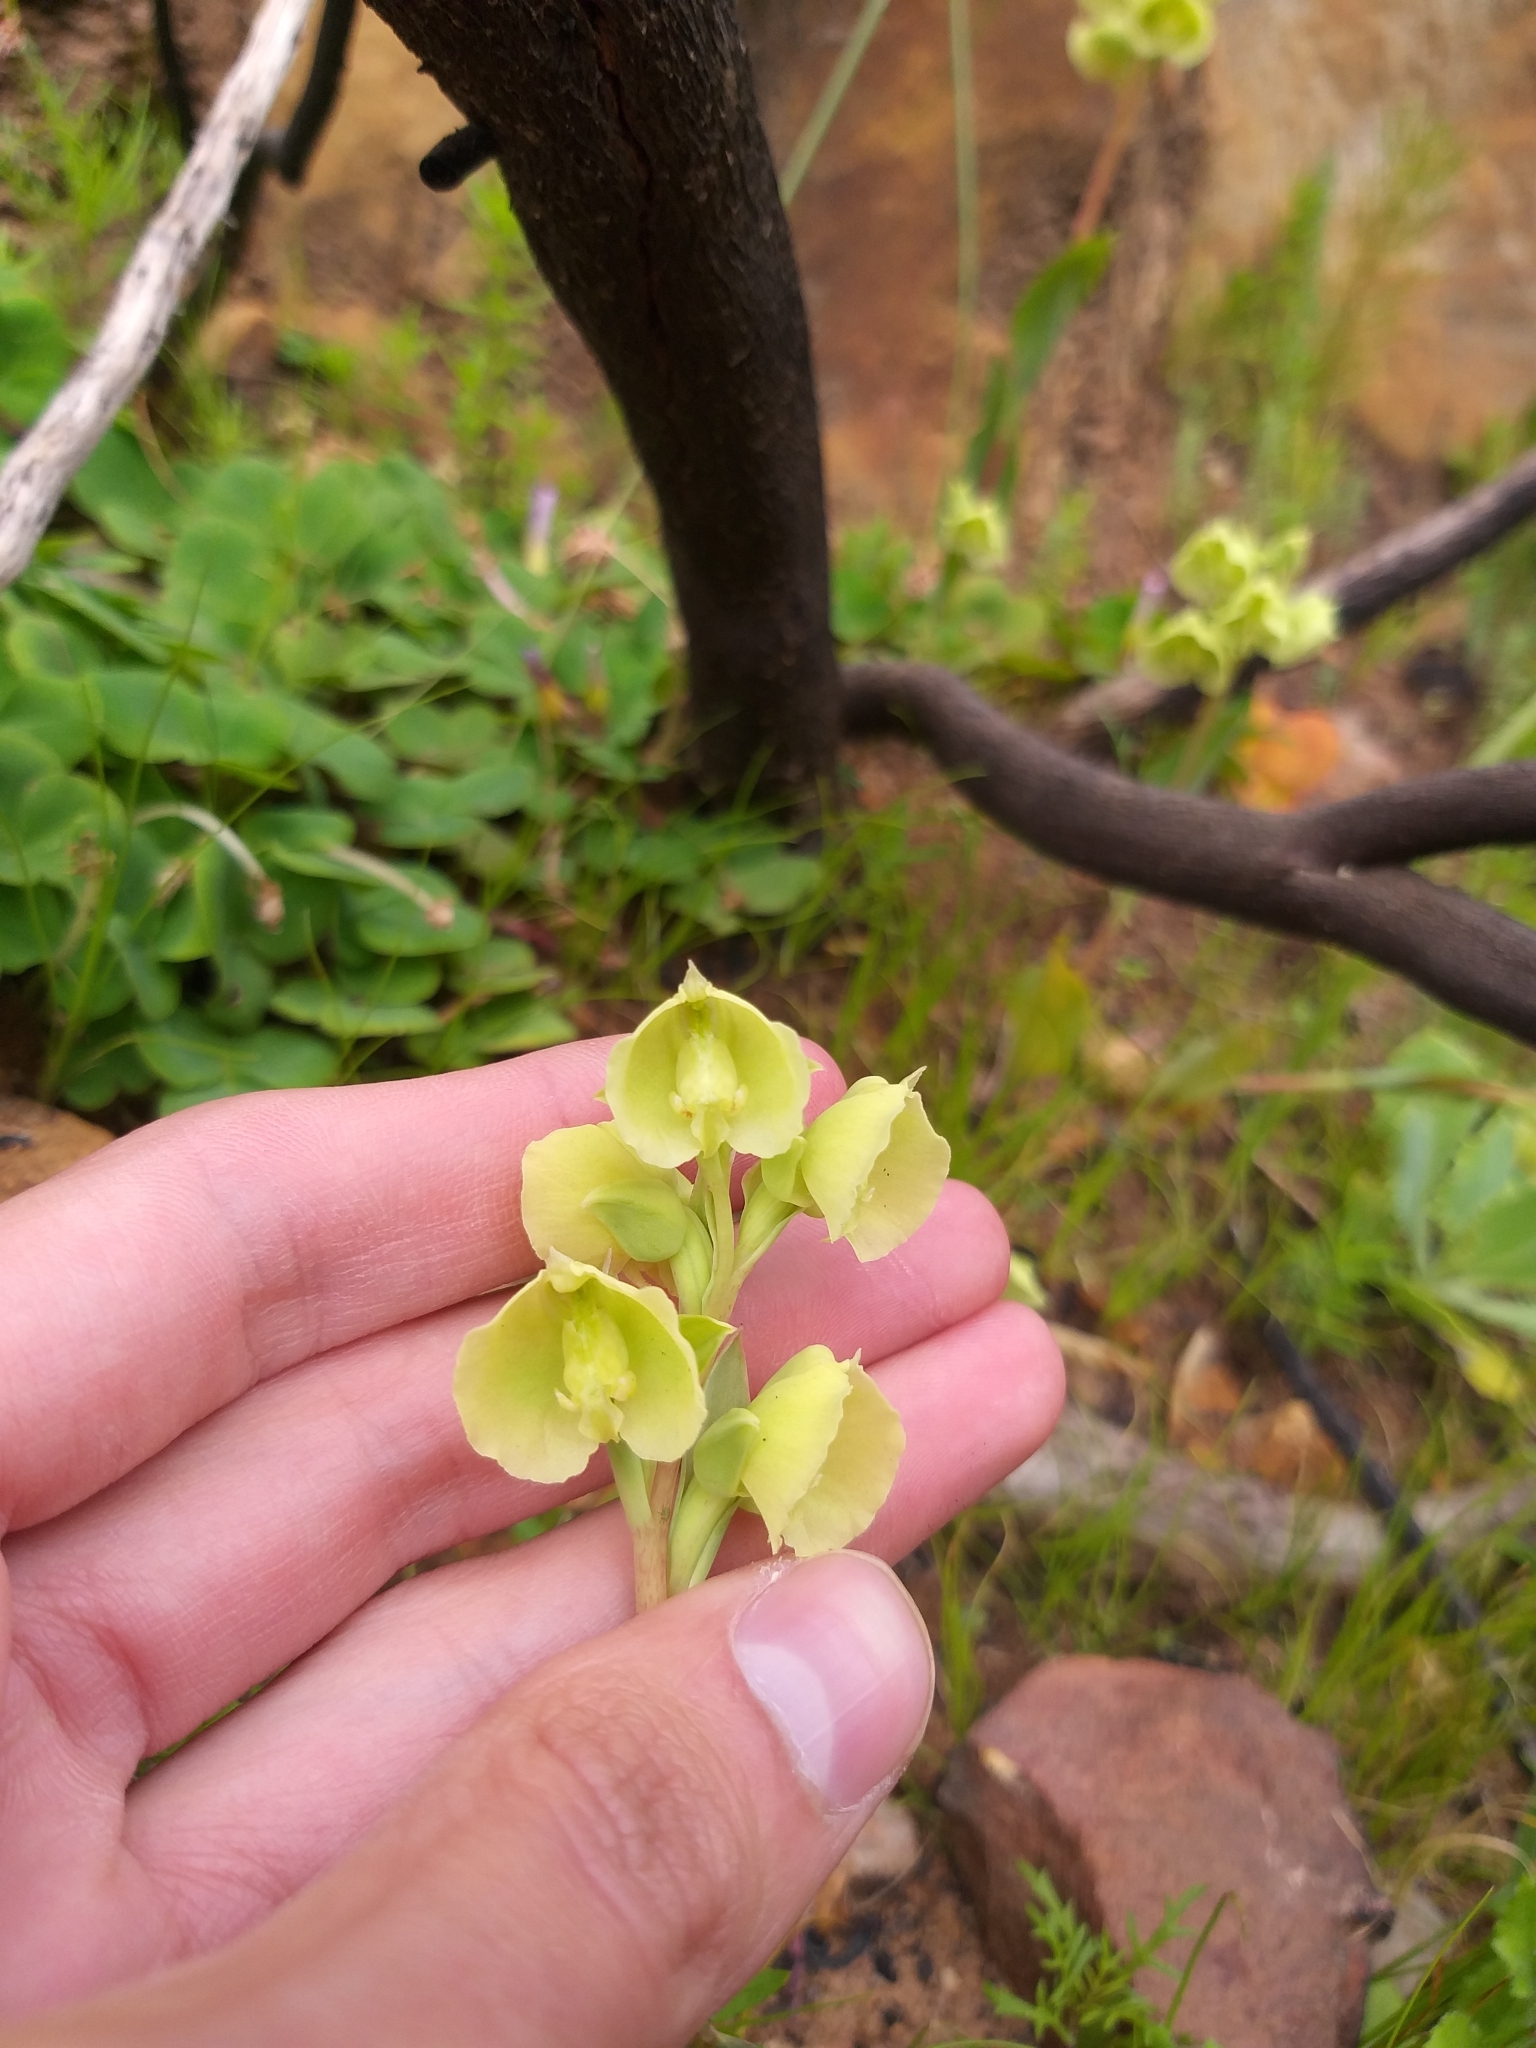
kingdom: Plantae
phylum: Tracheophyta
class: Liliopsida
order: Asparagales
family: Orchidaceae
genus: Pterygodium
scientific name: Pterygodium catholicum
